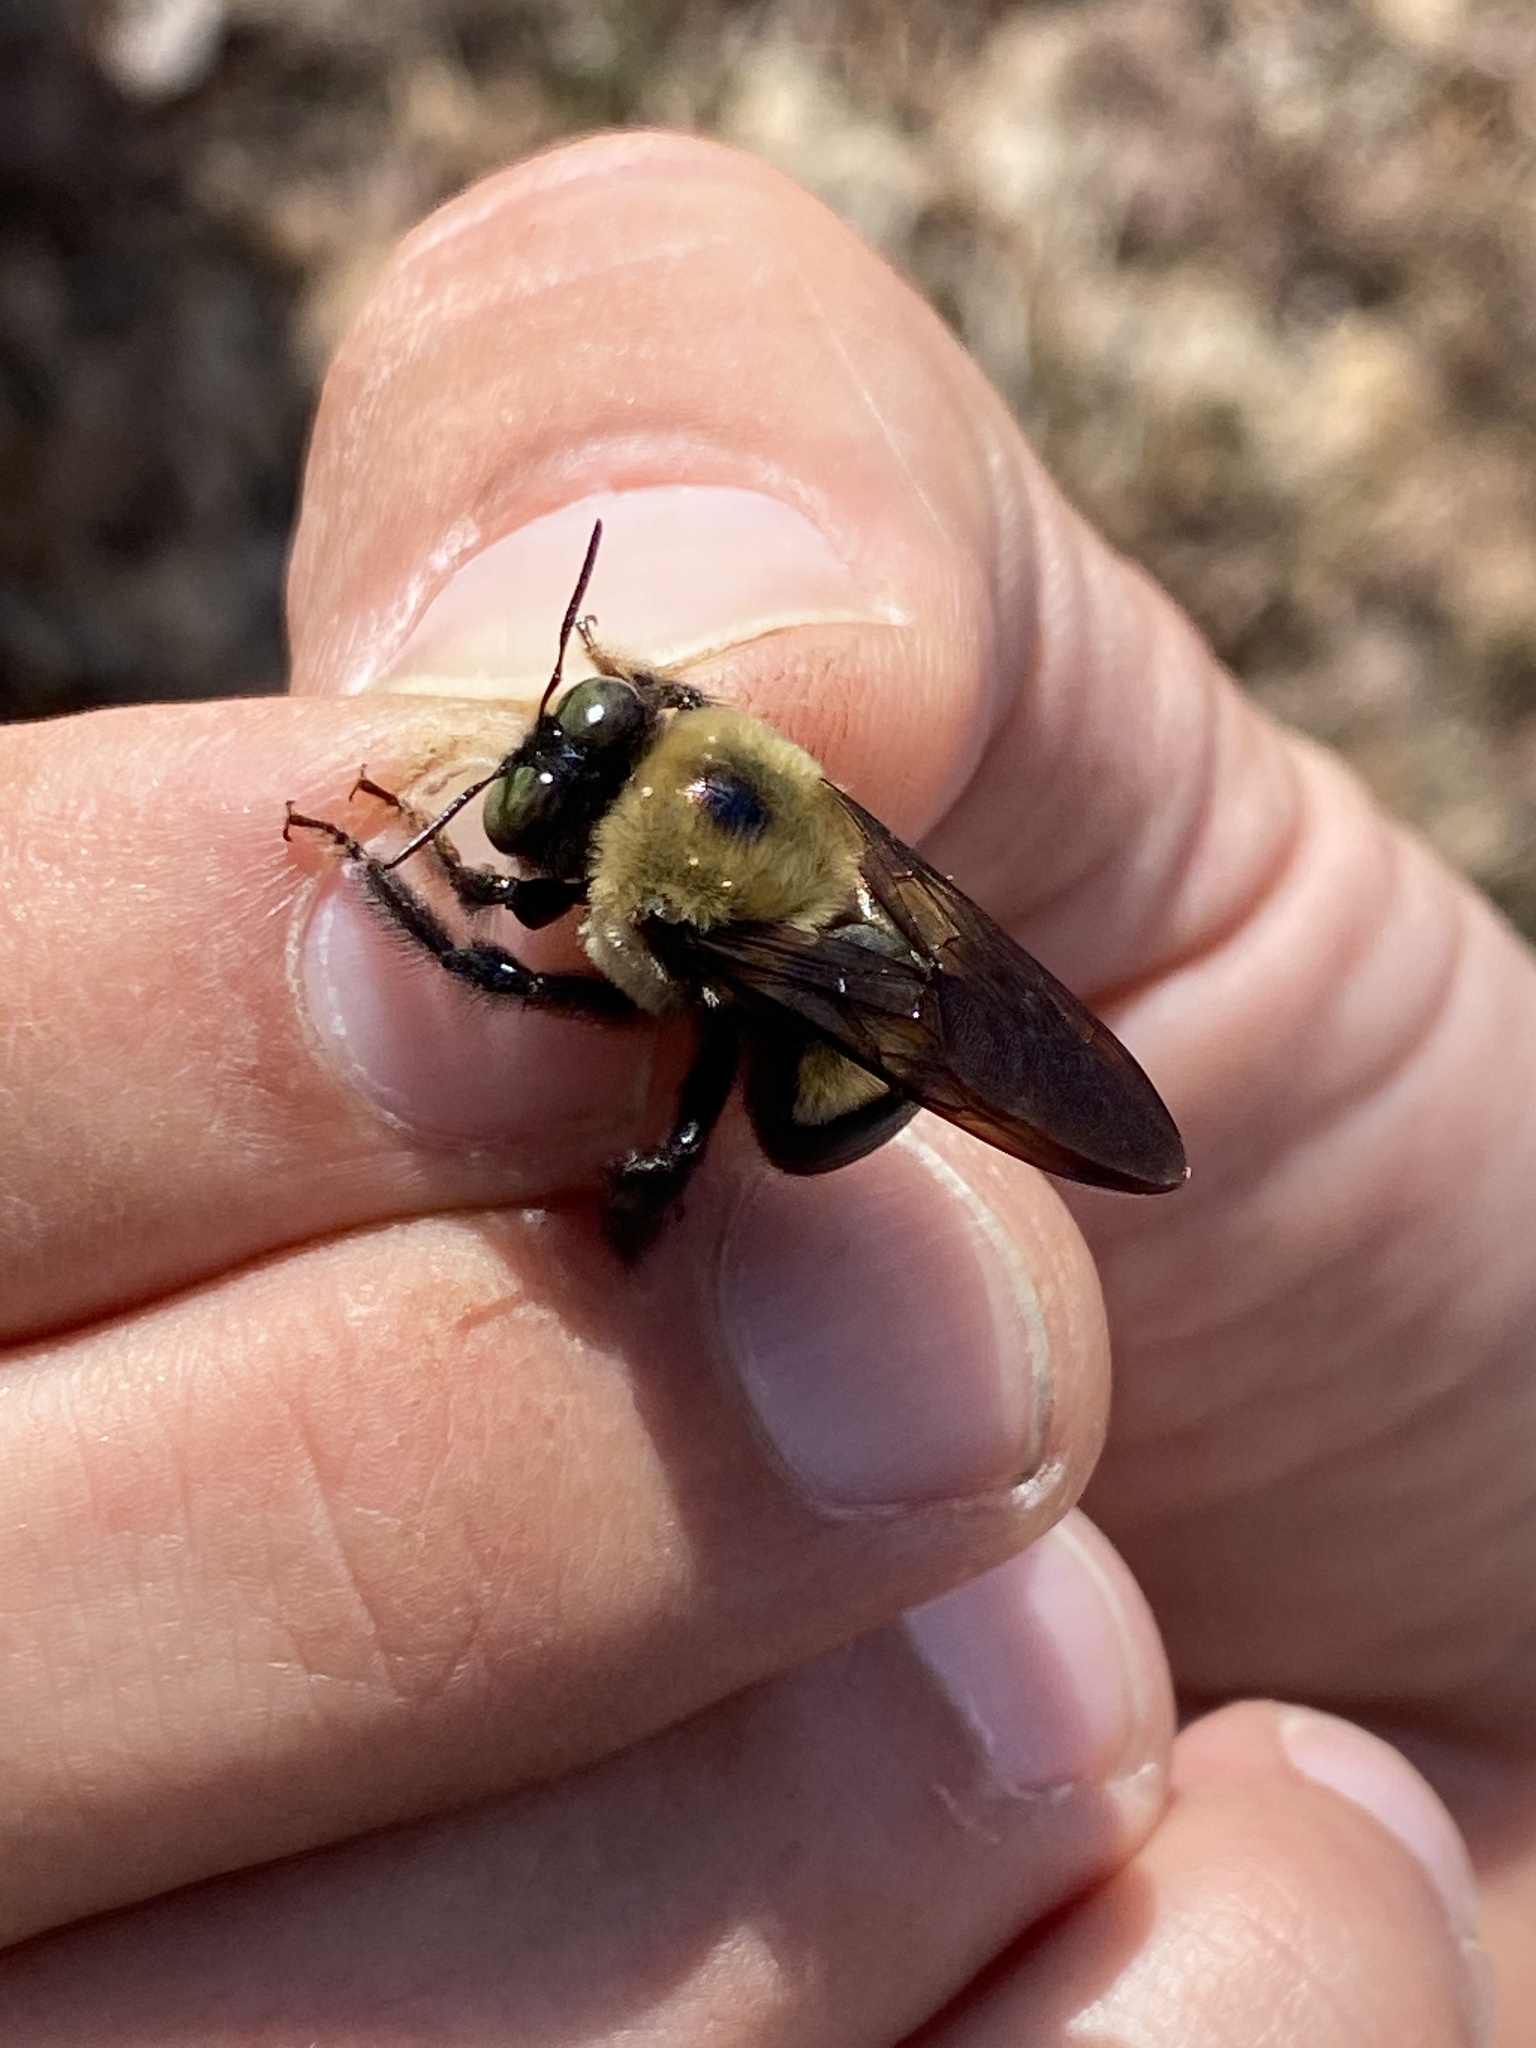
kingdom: Animalia
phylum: Arthropoda
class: Insecta
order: Hymenoptera
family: Apidae
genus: Xylocopa
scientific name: Xylocopa virginica
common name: Carpenter bee
